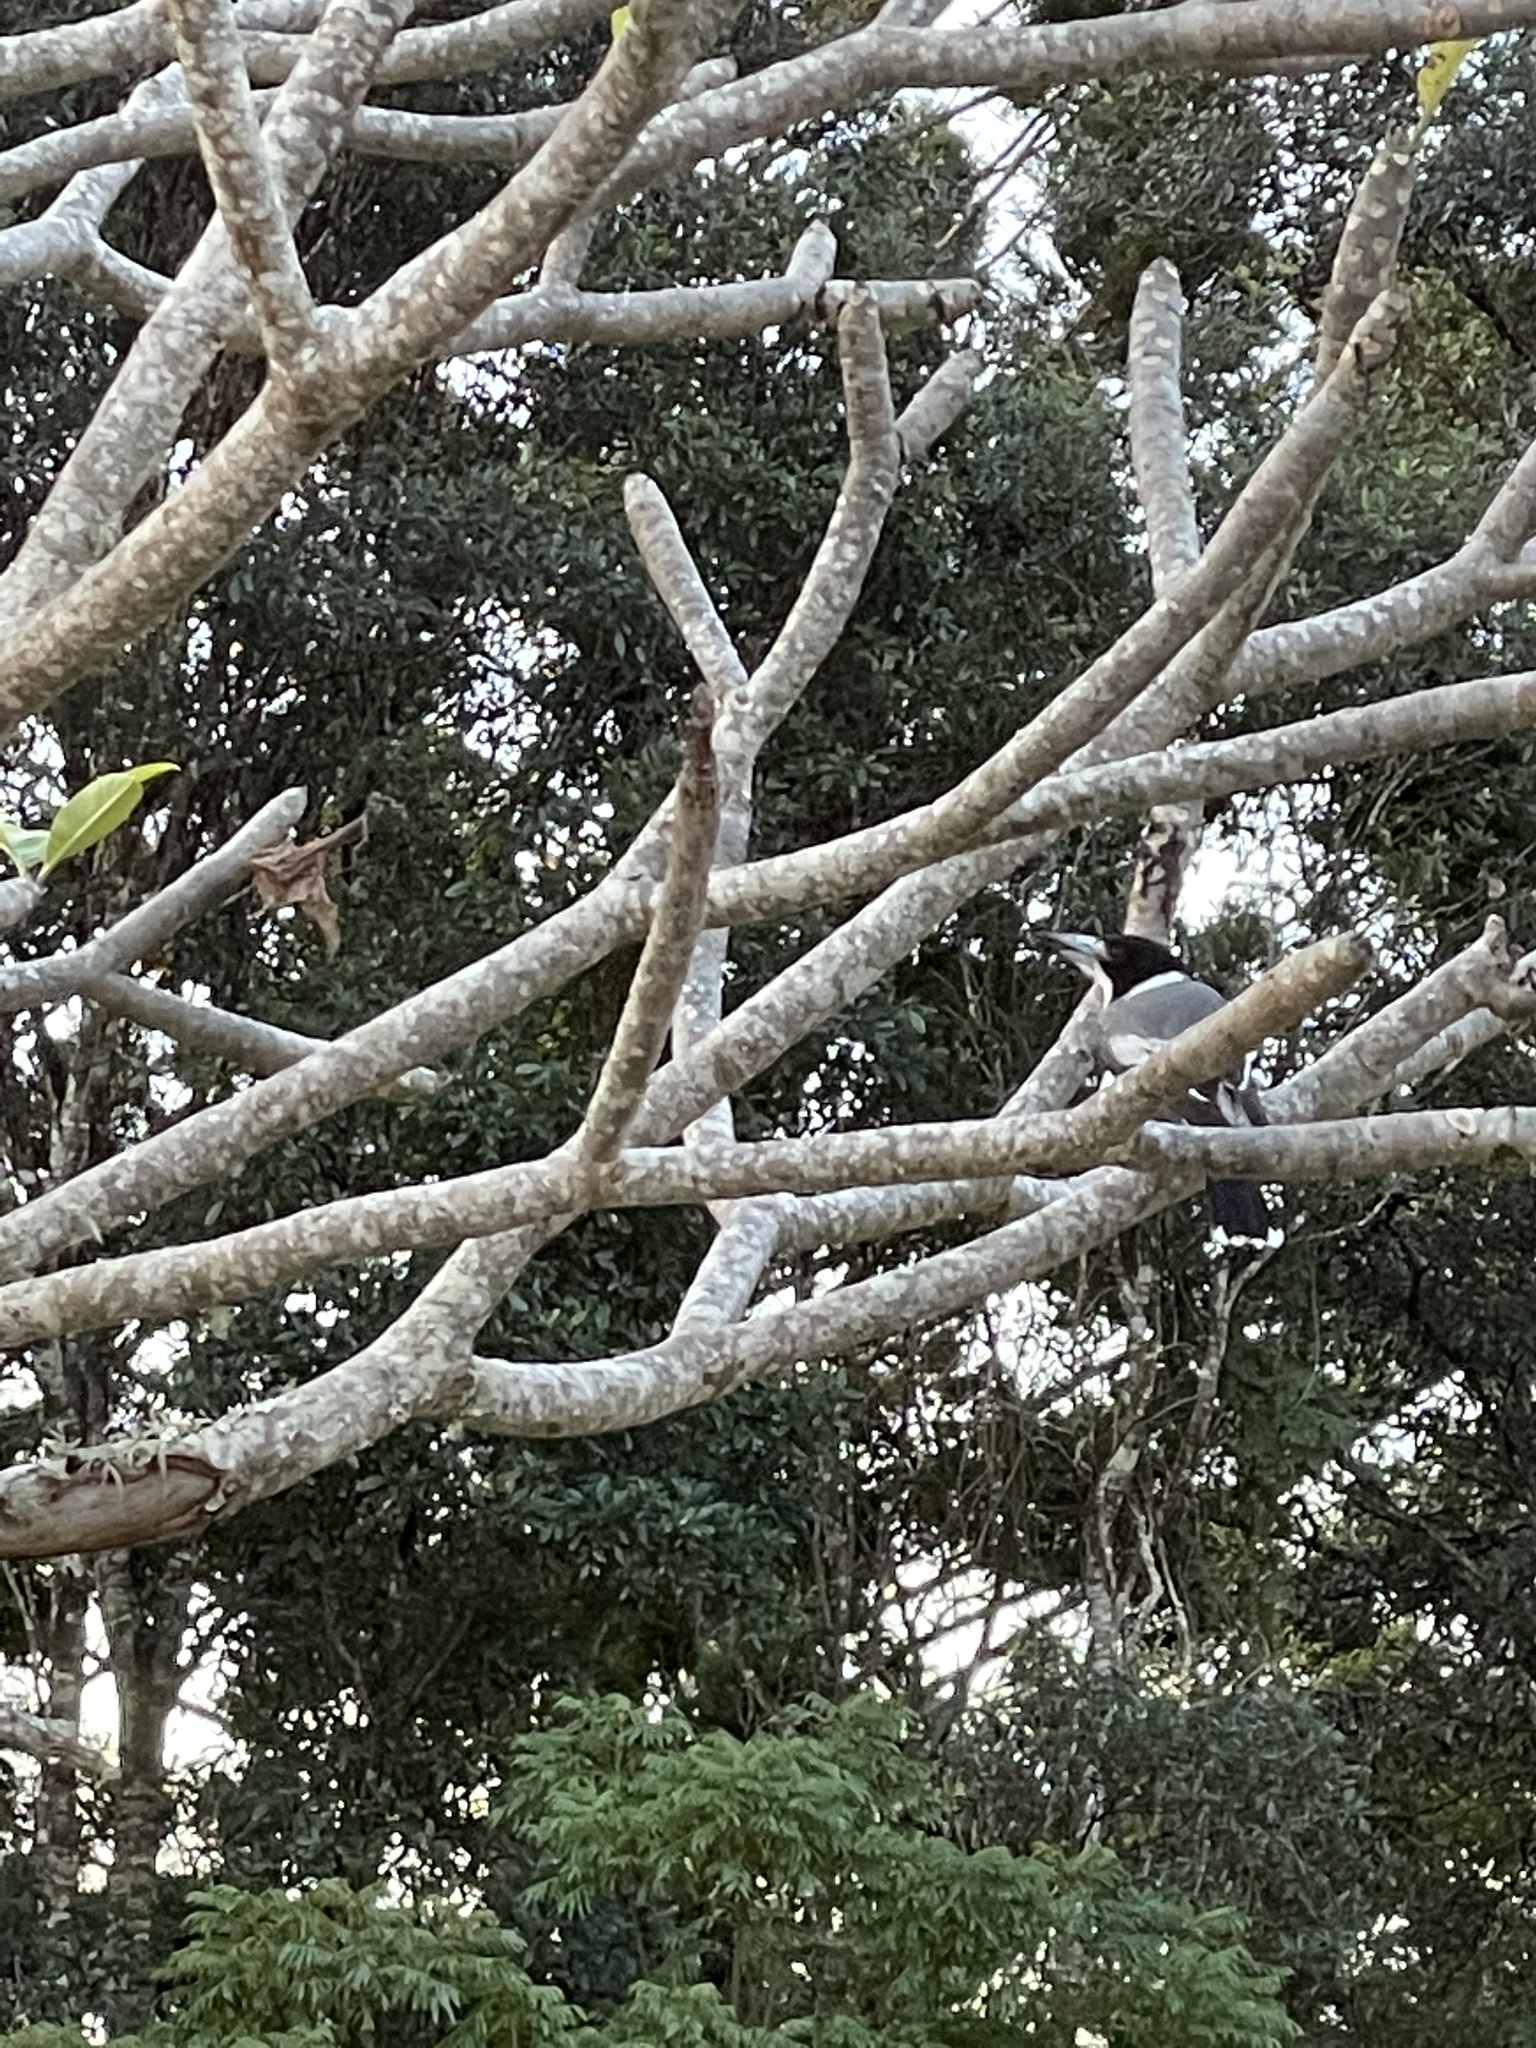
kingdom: Animalia
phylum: Chordata
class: Aves
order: Passeriformes
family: Cracticidae
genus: Cracticus
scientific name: Cracticus torquatus
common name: Grey butcherbird
